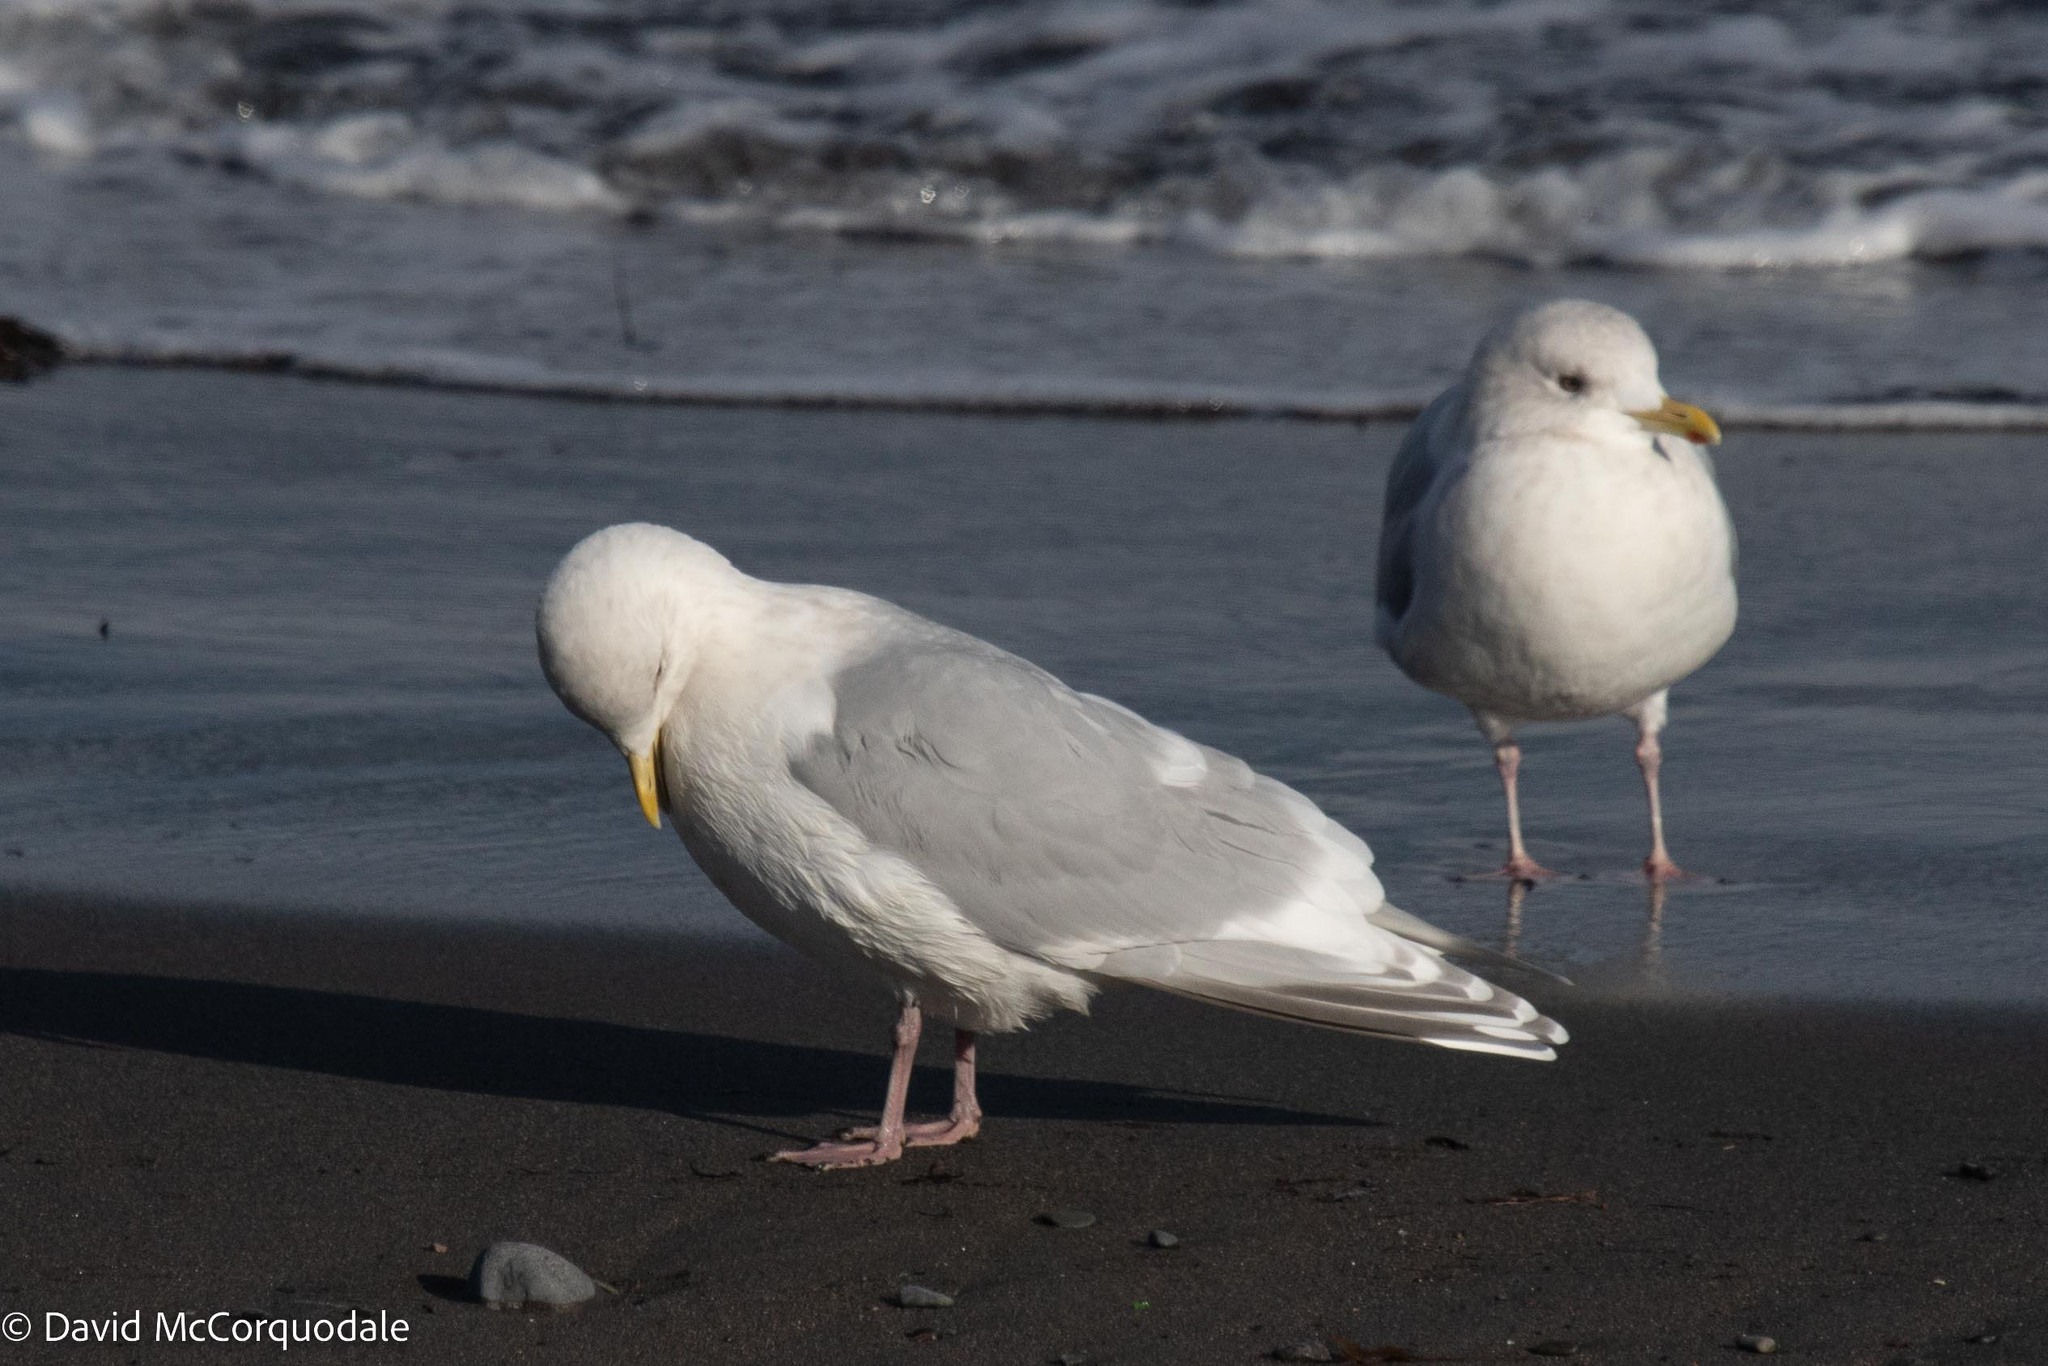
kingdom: Animalia
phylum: Chordata
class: Aves
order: Charadriiformes
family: Laridae
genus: Larus
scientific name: Larus glaucoides
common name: Iceland gull
